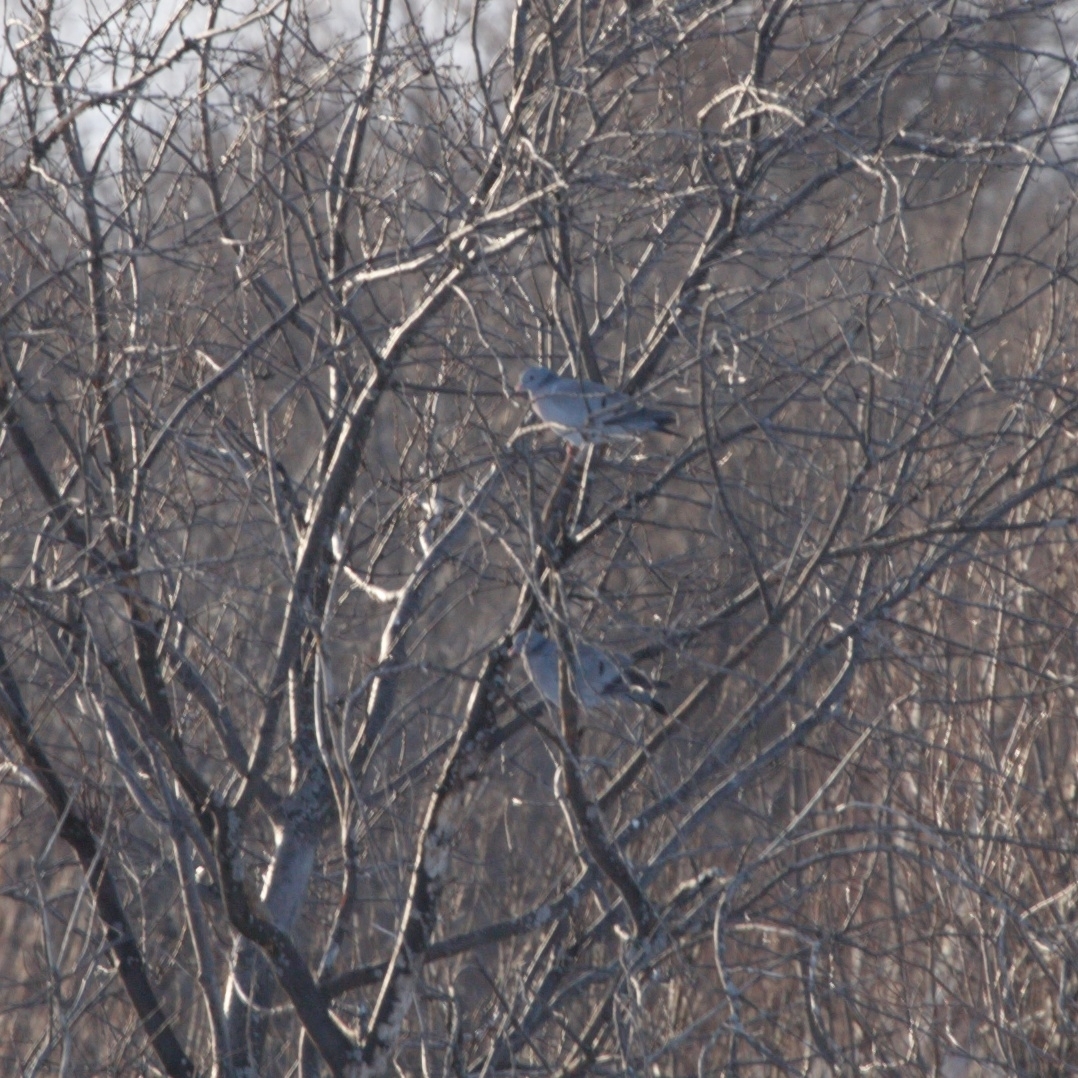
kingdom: Animalia
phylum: Chordata
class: Aves
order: Columbiformes
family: Columbidae
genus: Columba
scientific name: Columba oenas
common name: Stock dove
